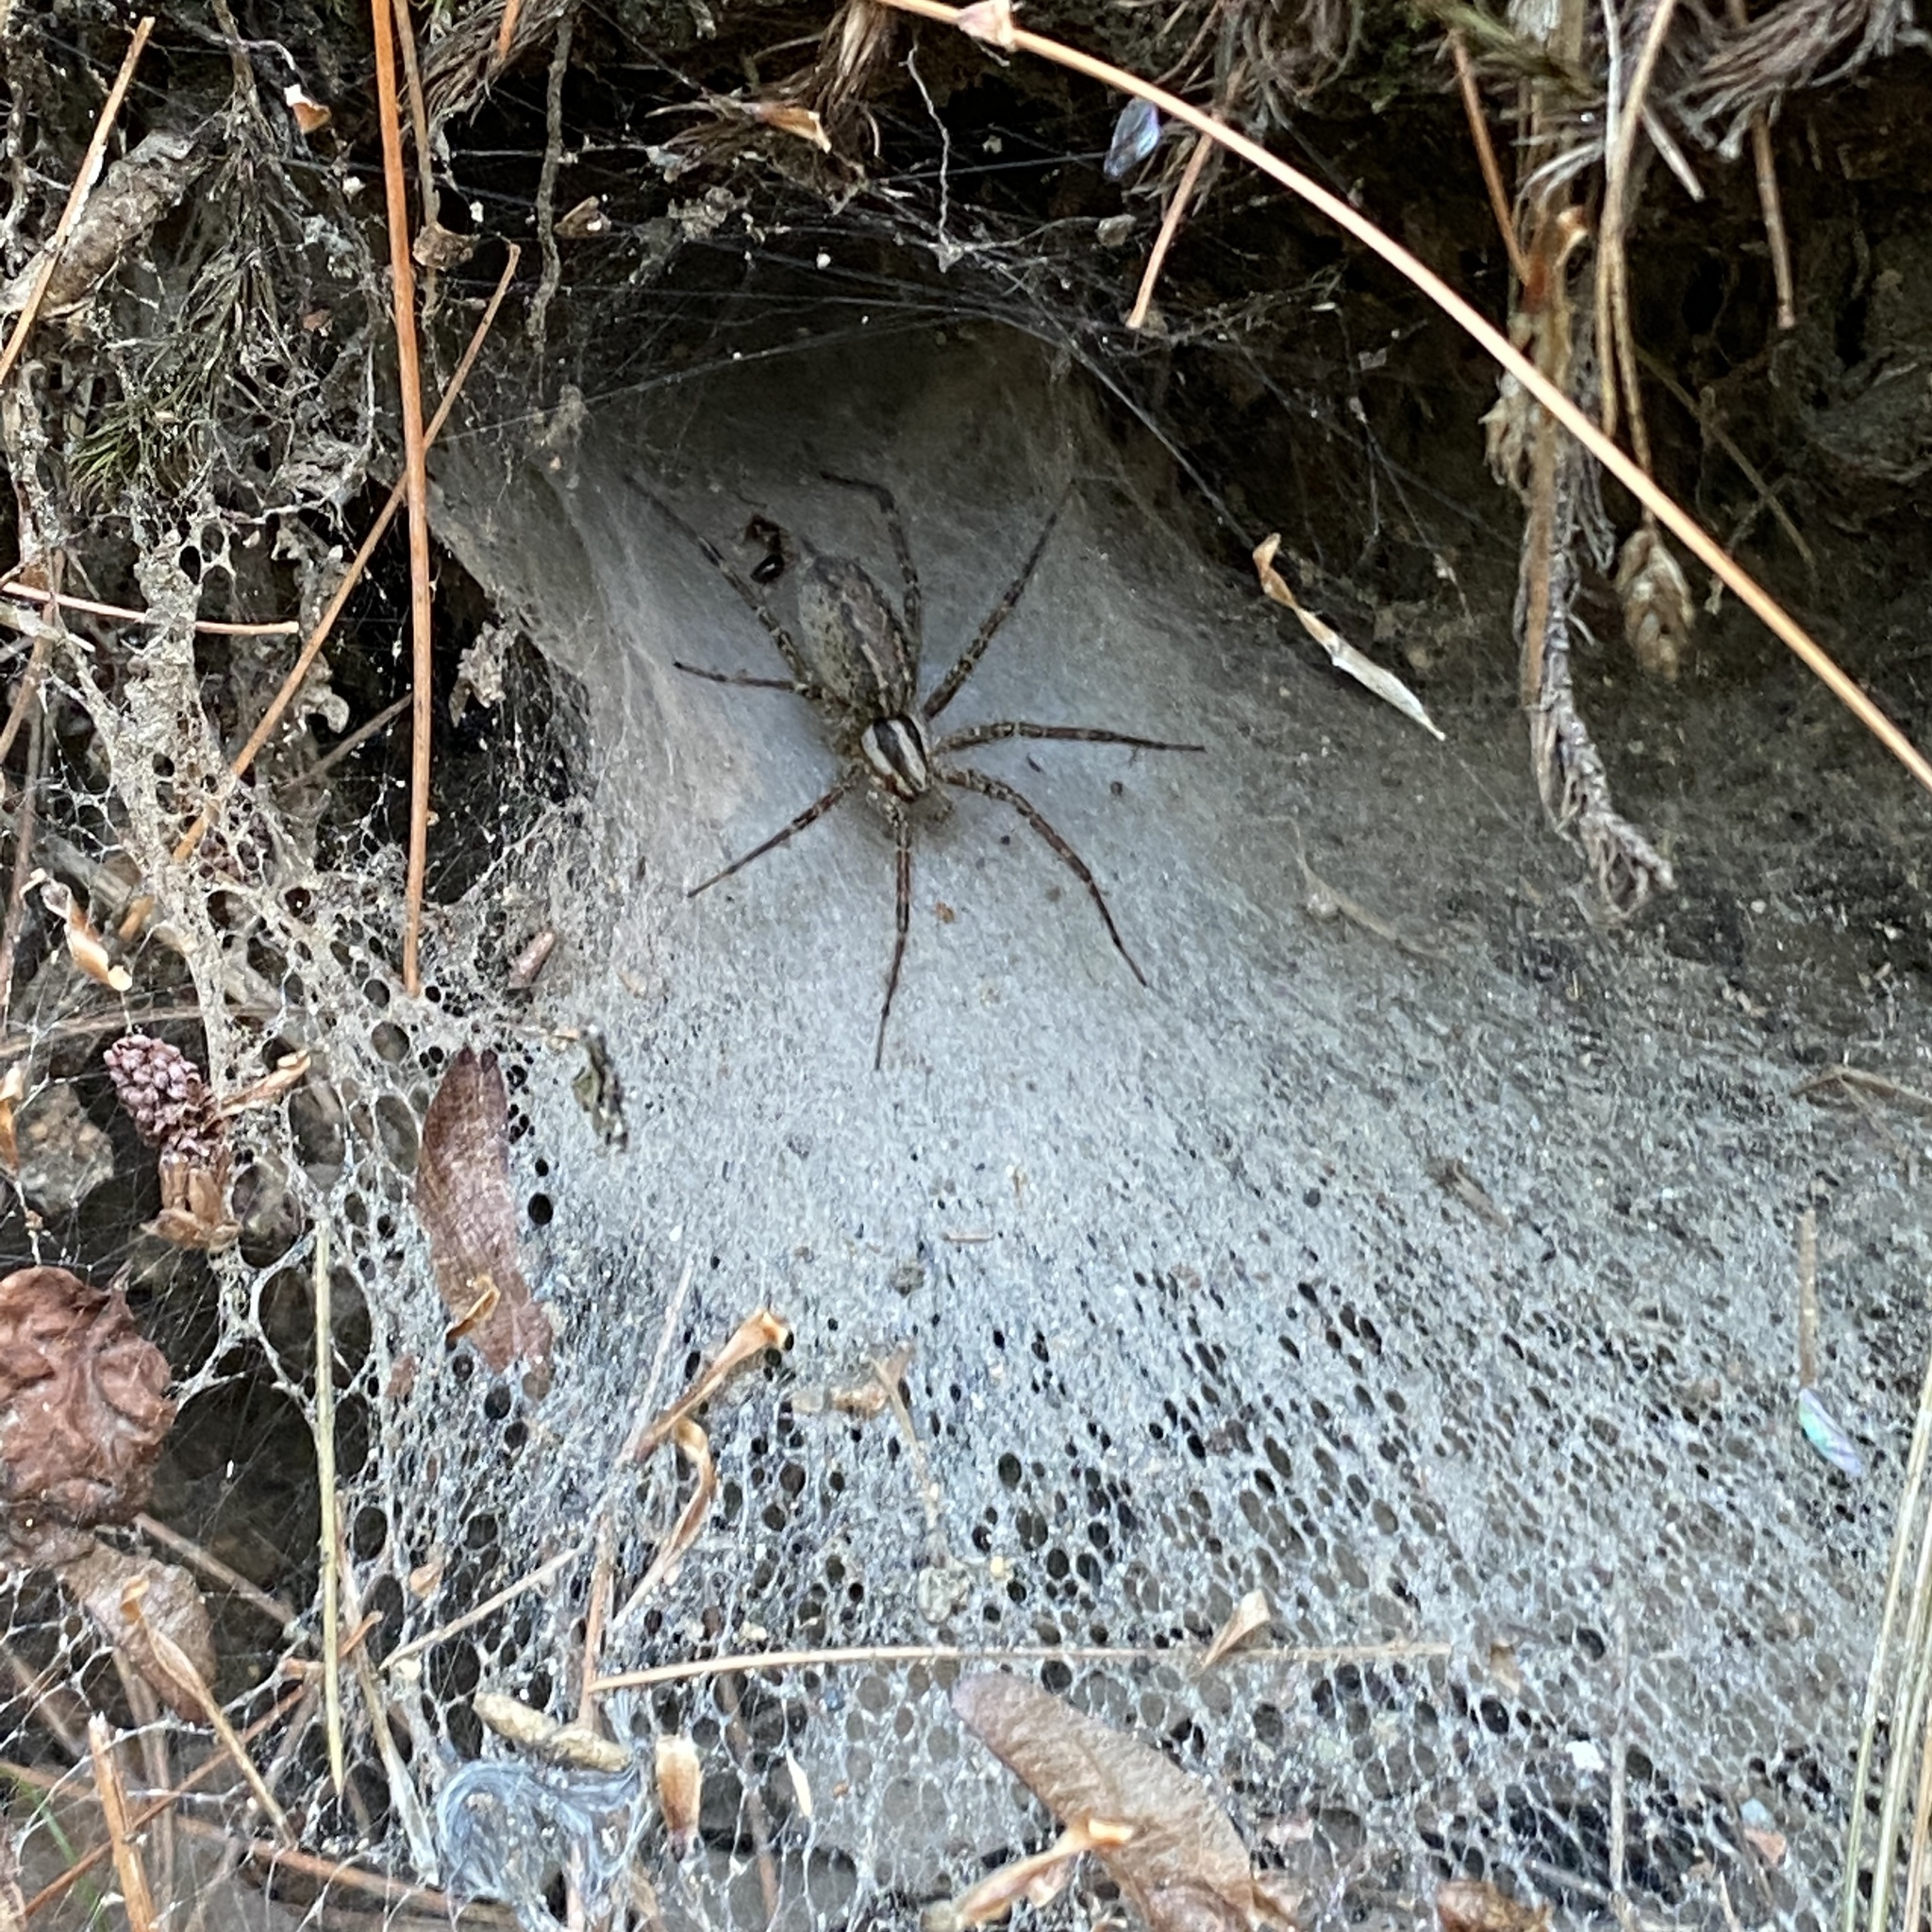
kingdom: Animalia
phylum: Arthropoda
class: Arachnida
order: Araneae
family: Agelenidae
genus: Agelenopsis
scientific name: Agelenopsis
